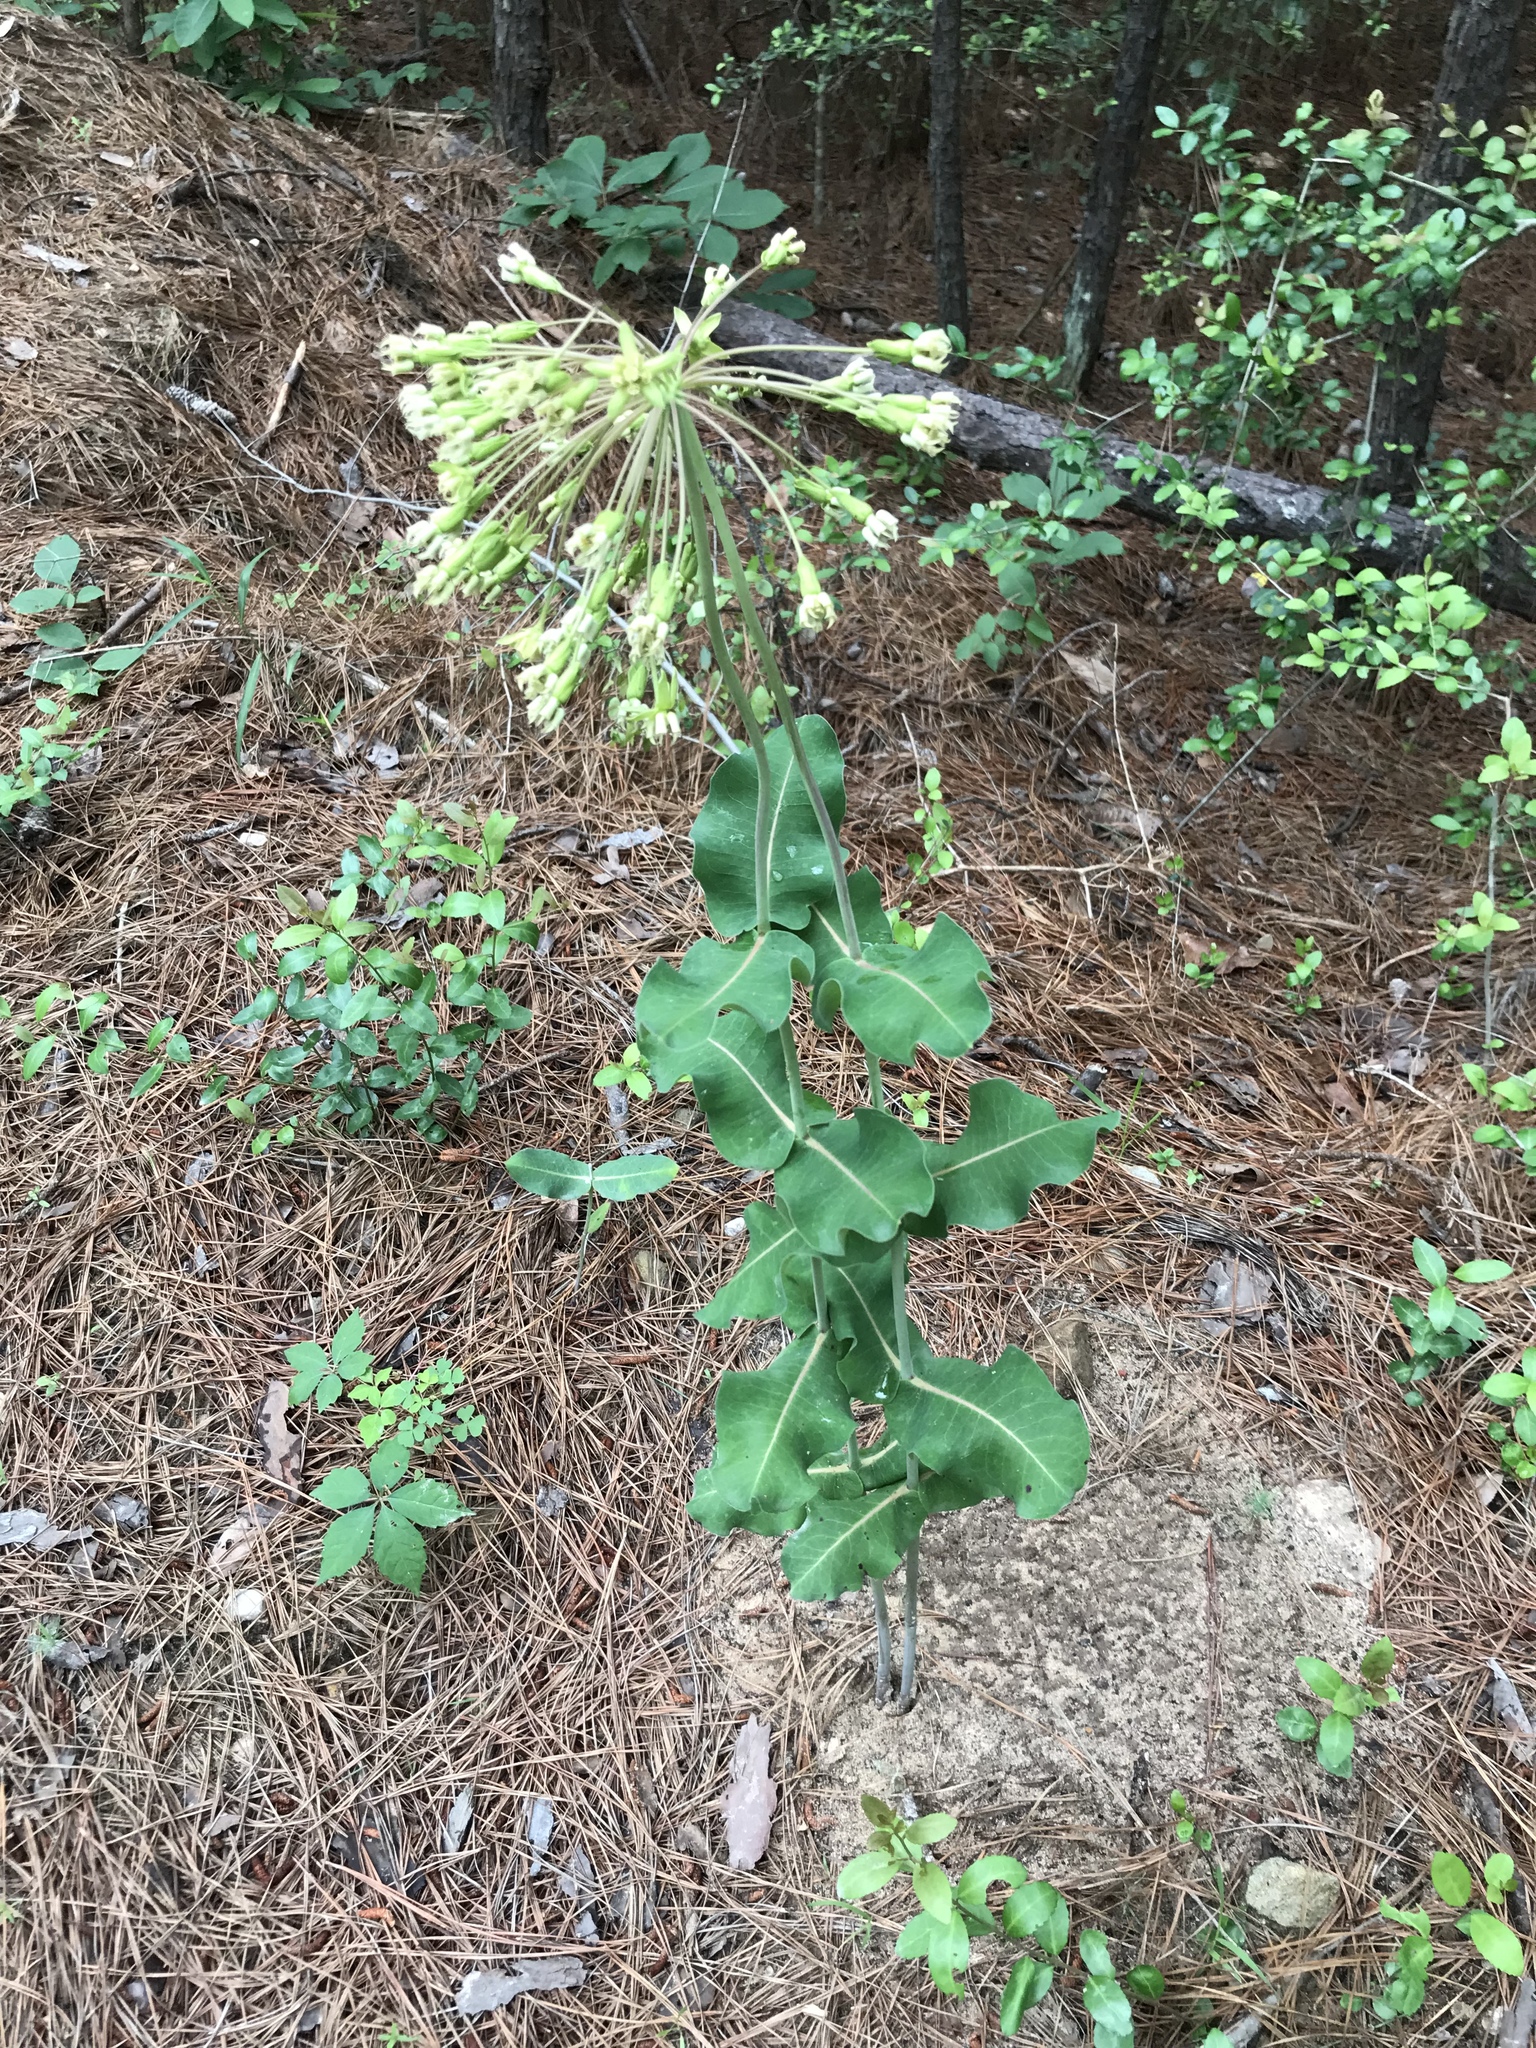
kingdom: Plantae
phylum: Tracheophyta
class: Magnoliopsida
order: Gentianales
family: Apocynaceae
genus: Asclepias
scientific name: Asclepias amplexicaulis
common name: Blunt-leaf milkweed
